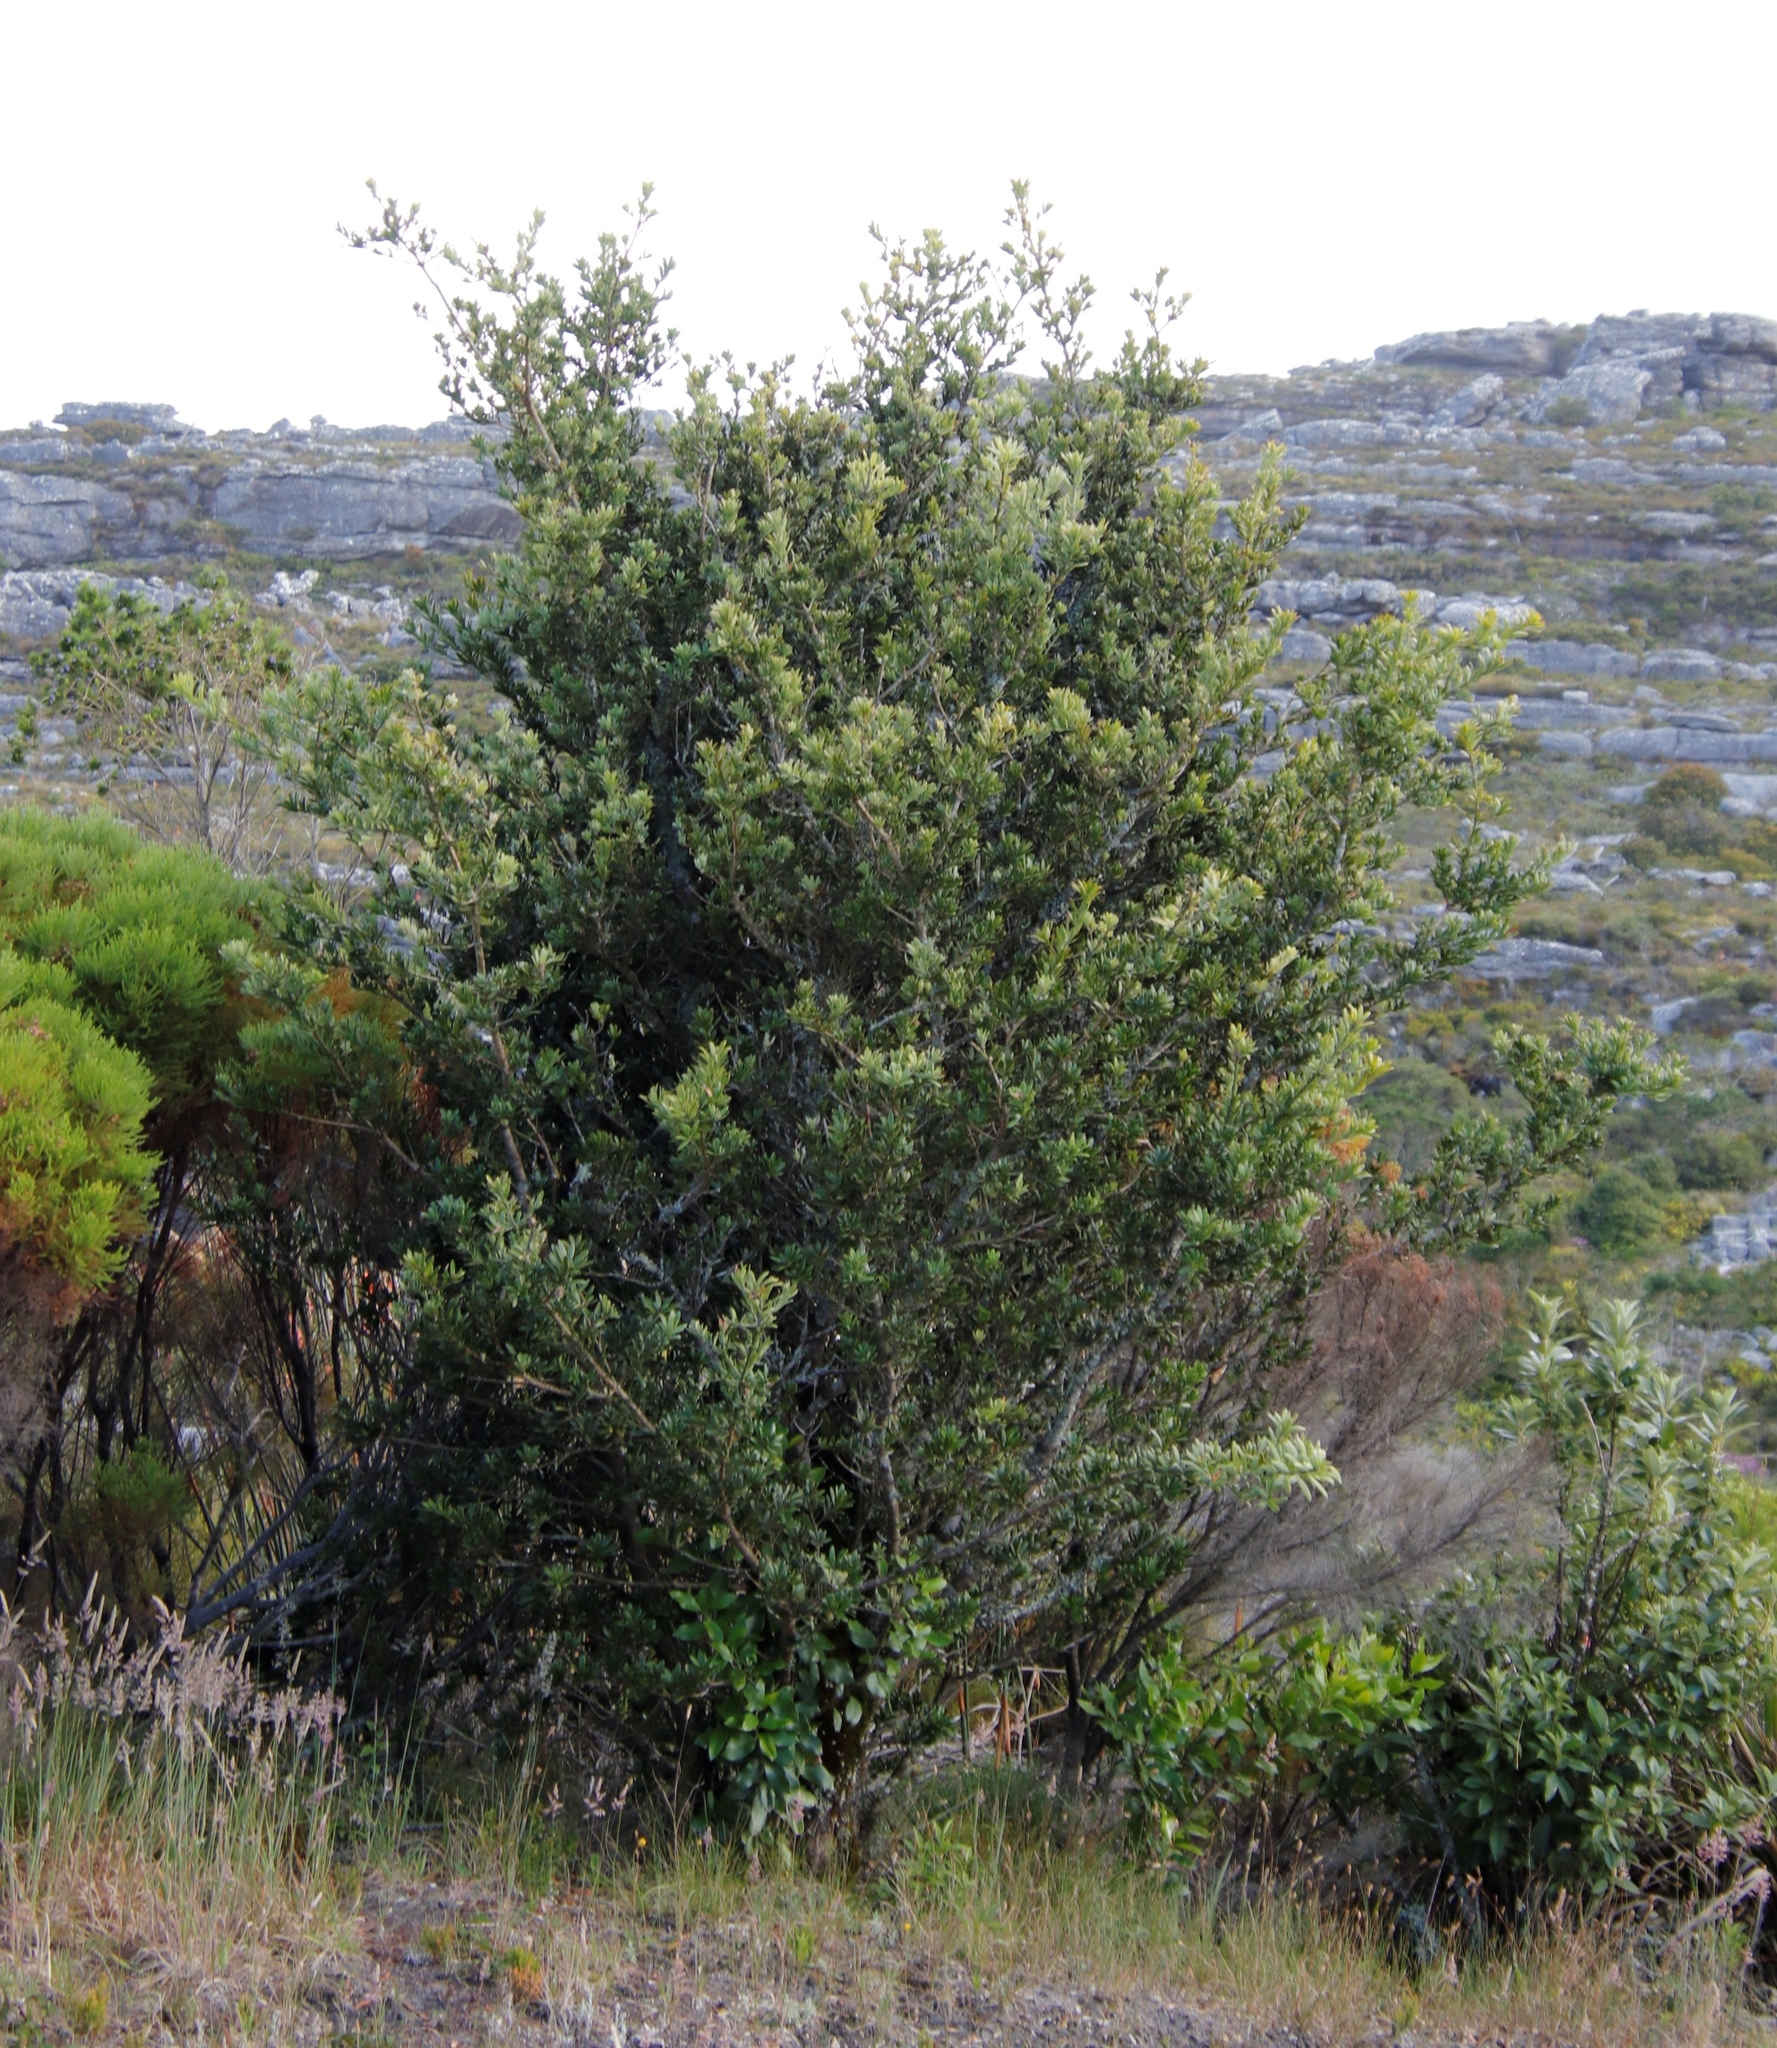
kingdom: Plantae
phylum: Tracheophyta
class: Pinopsida
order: Pinales
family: Podocarpaceae
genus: Podocarpus
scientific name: Podocarpus latifolius
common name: True yellowwood
